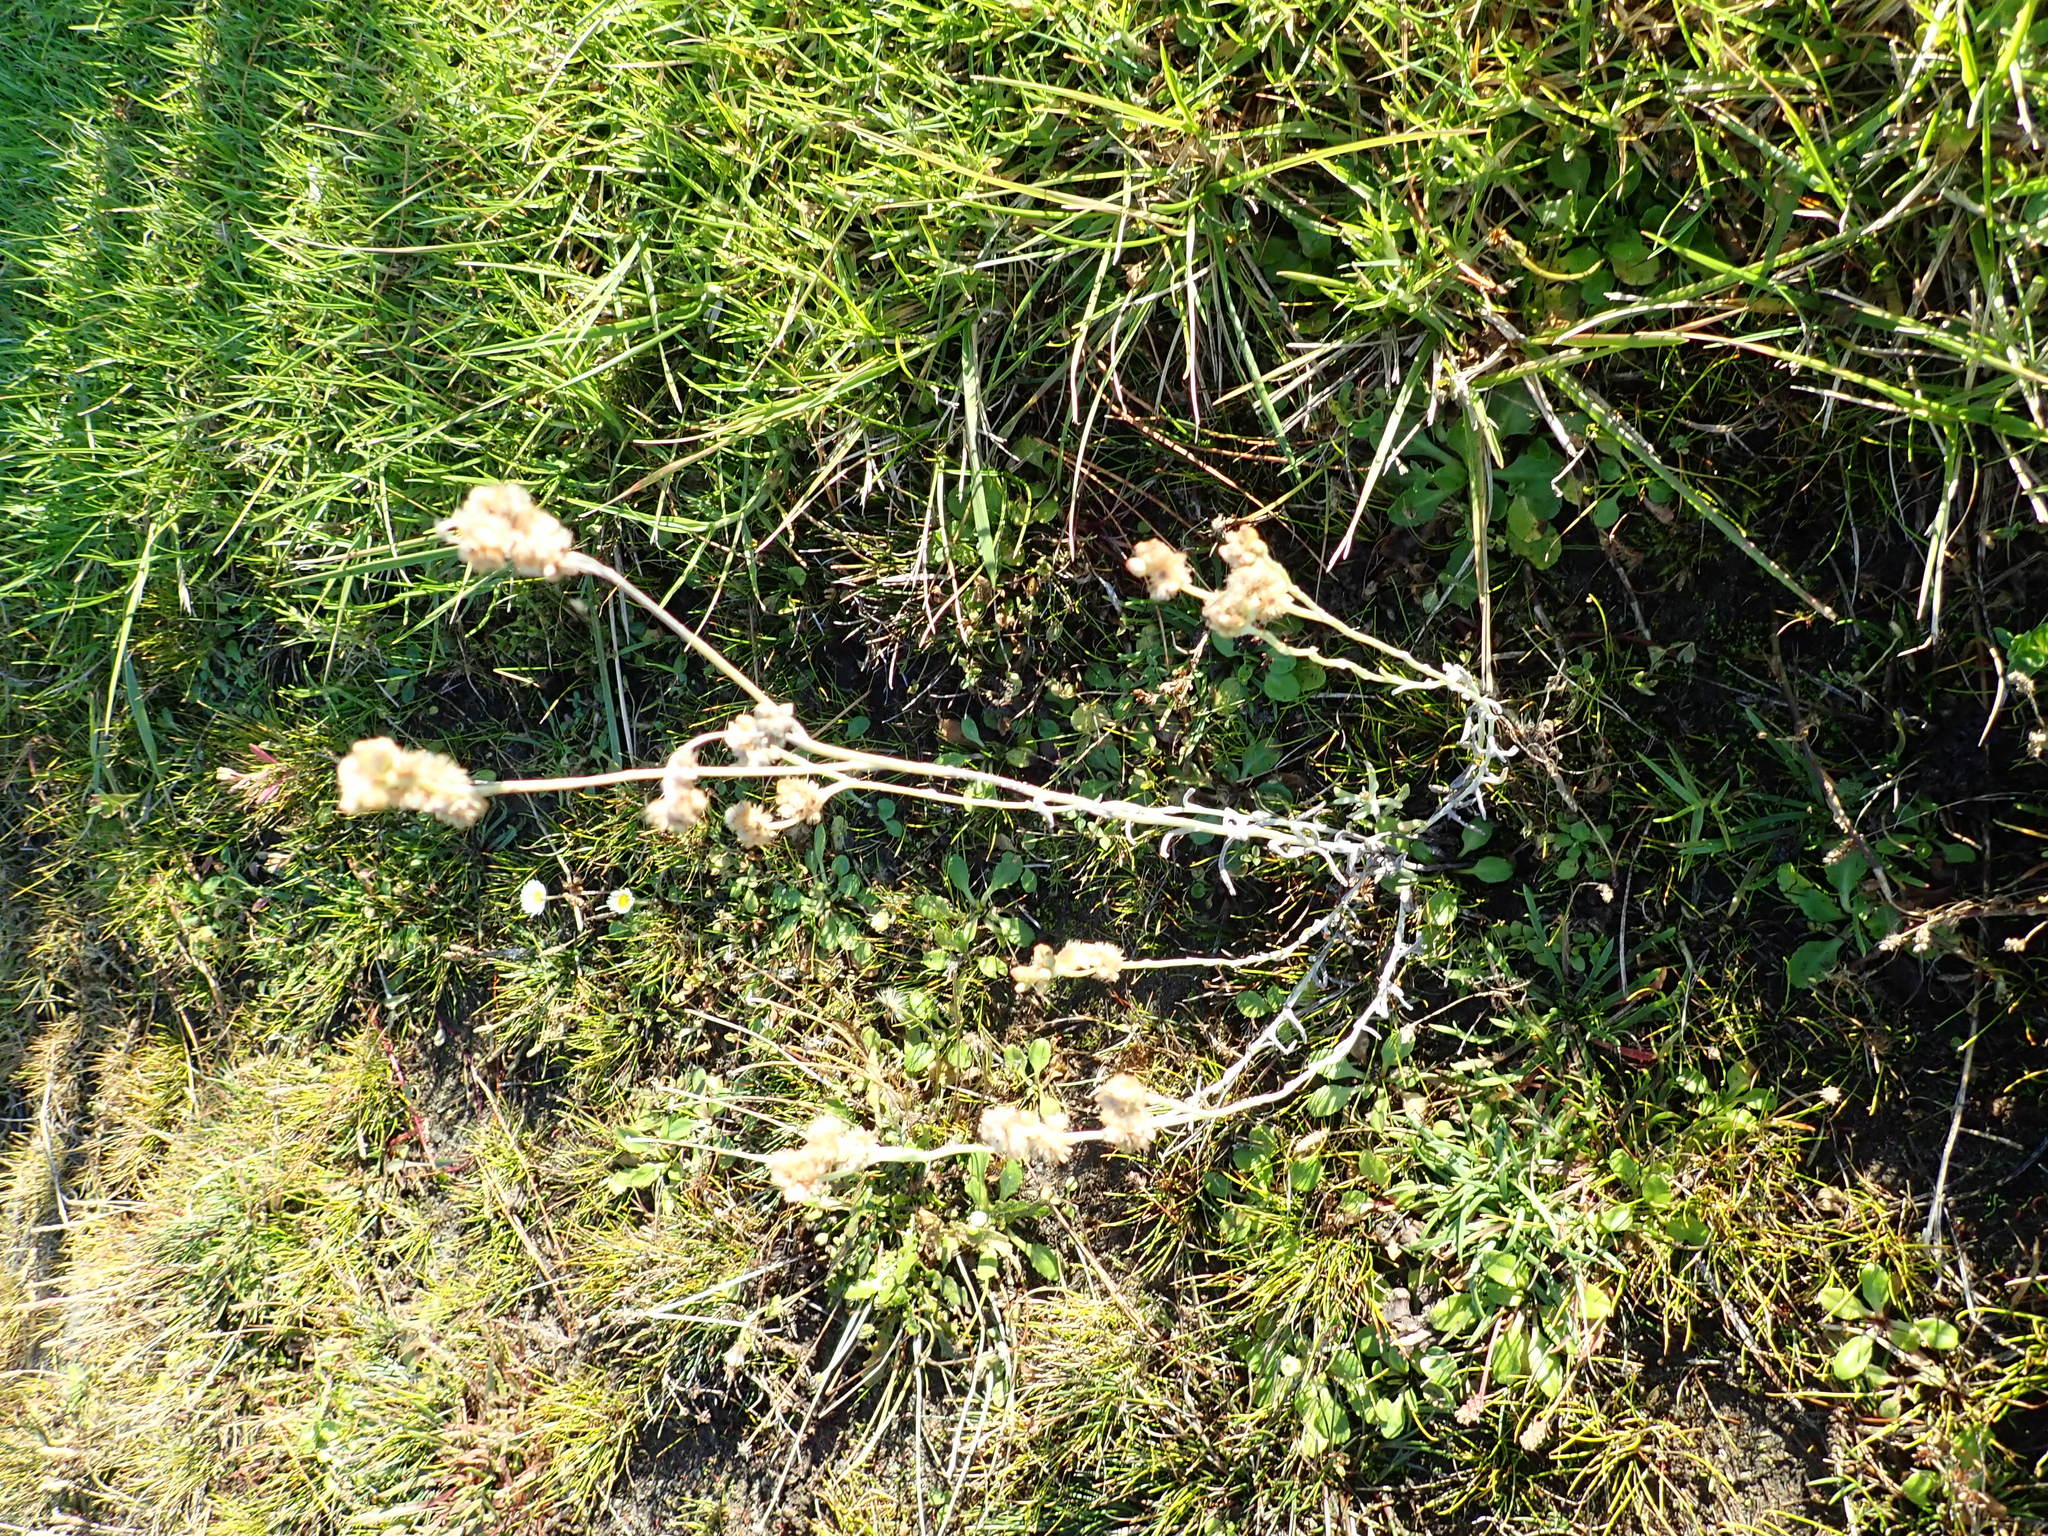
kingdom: Plantae
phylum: Tracheophyta
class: Magnoliopsida
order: Asterales
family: Asteraceae
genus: Helichrysum
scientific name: Helichrysum luteoalbum
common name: Daisy
